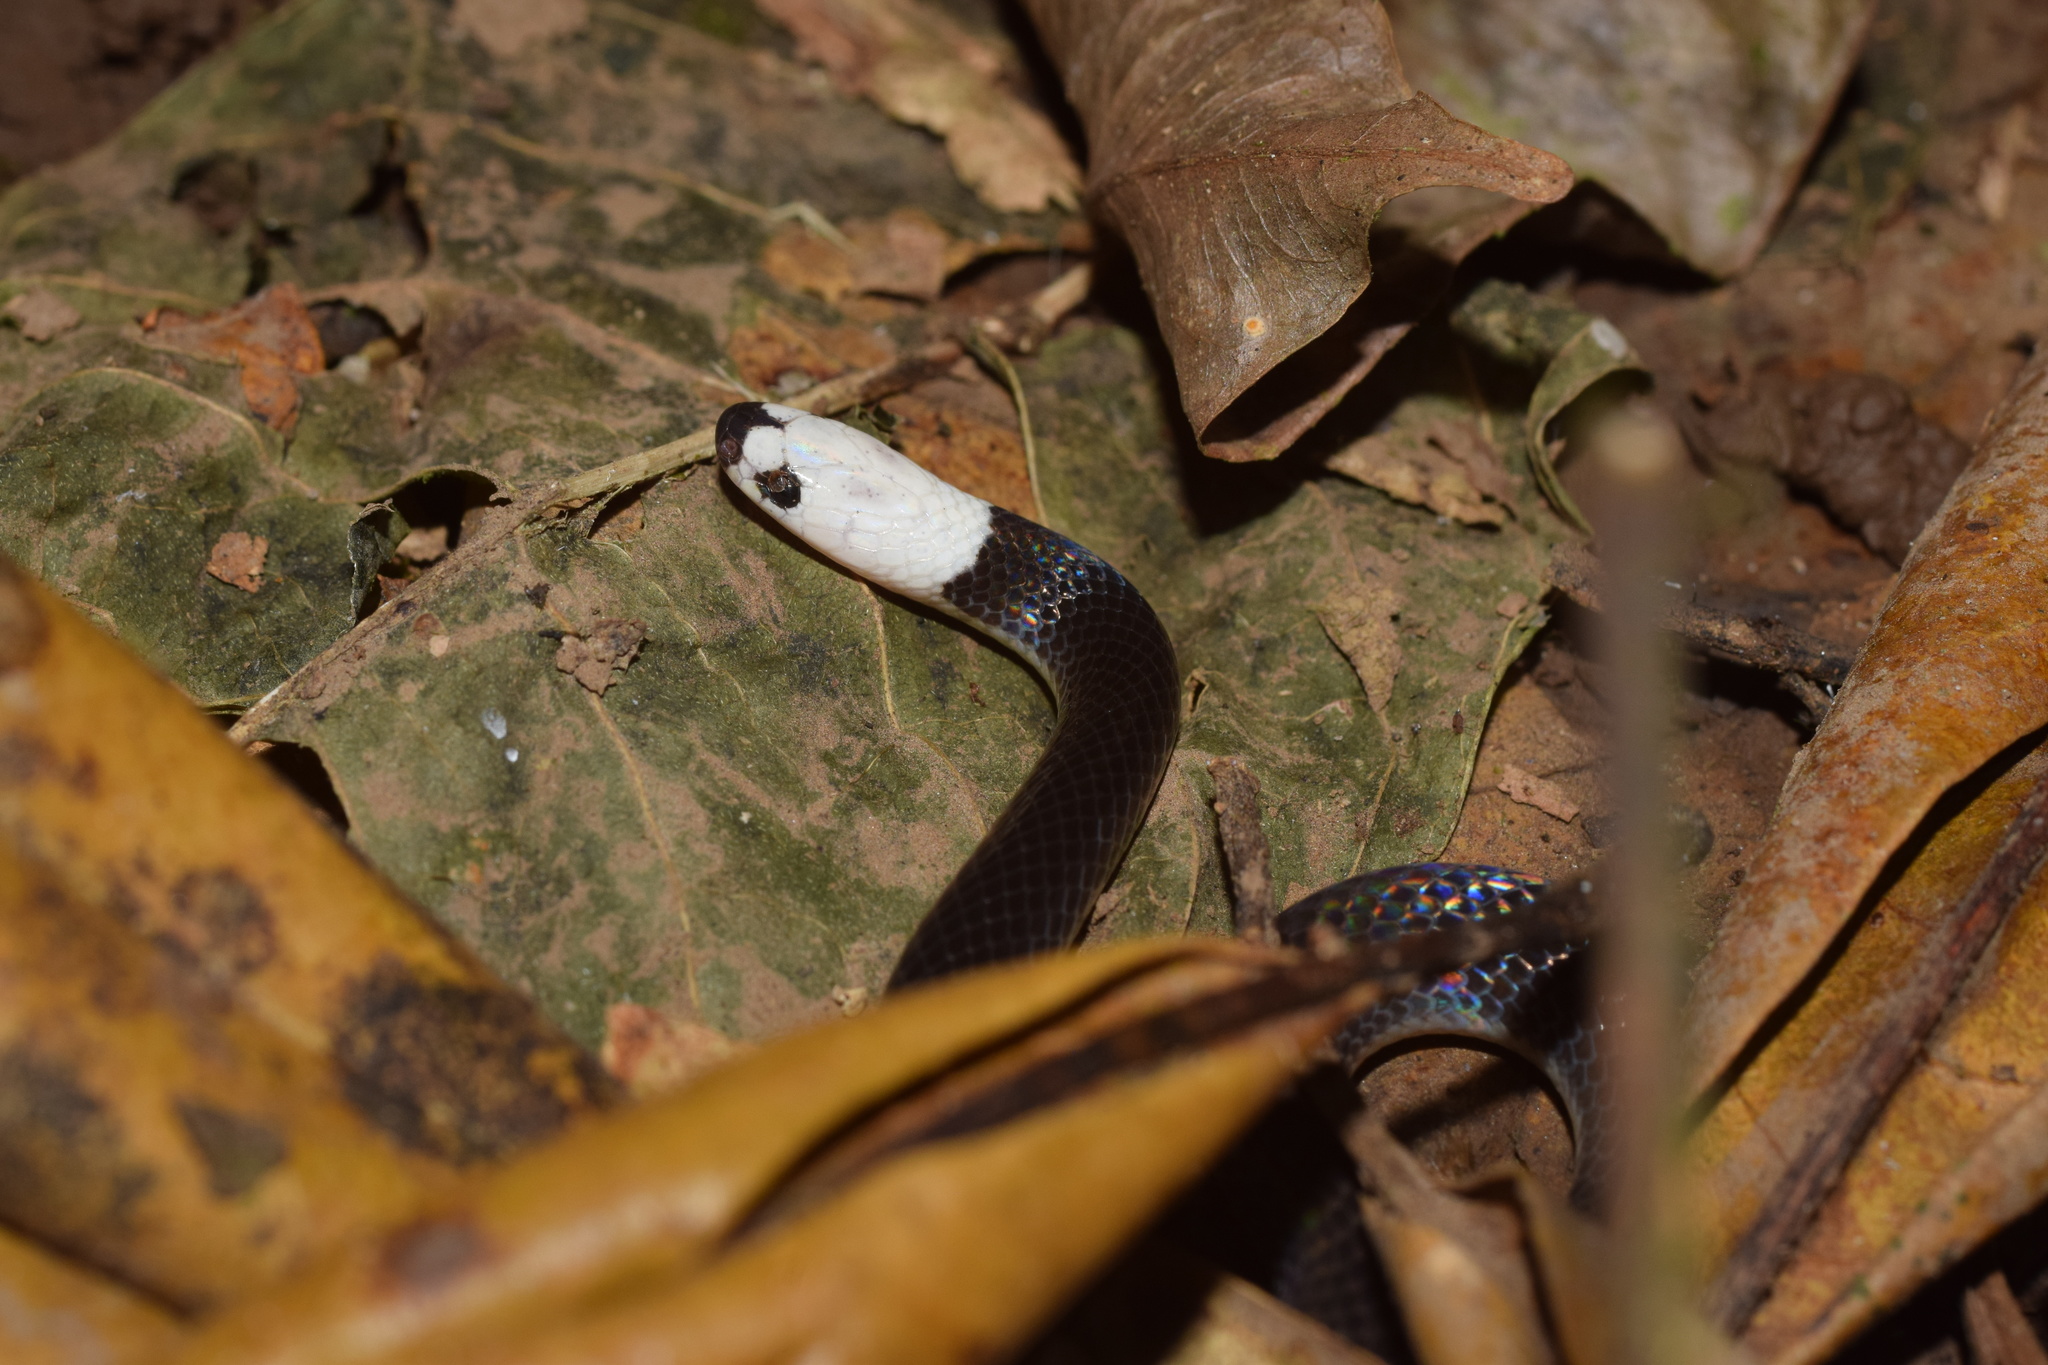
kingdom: Animalia
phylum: Chordata
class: Squamata
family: Colubridae
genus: Enuliophis
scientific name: Enuliophis sclateri
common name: Colombian longtail snake
